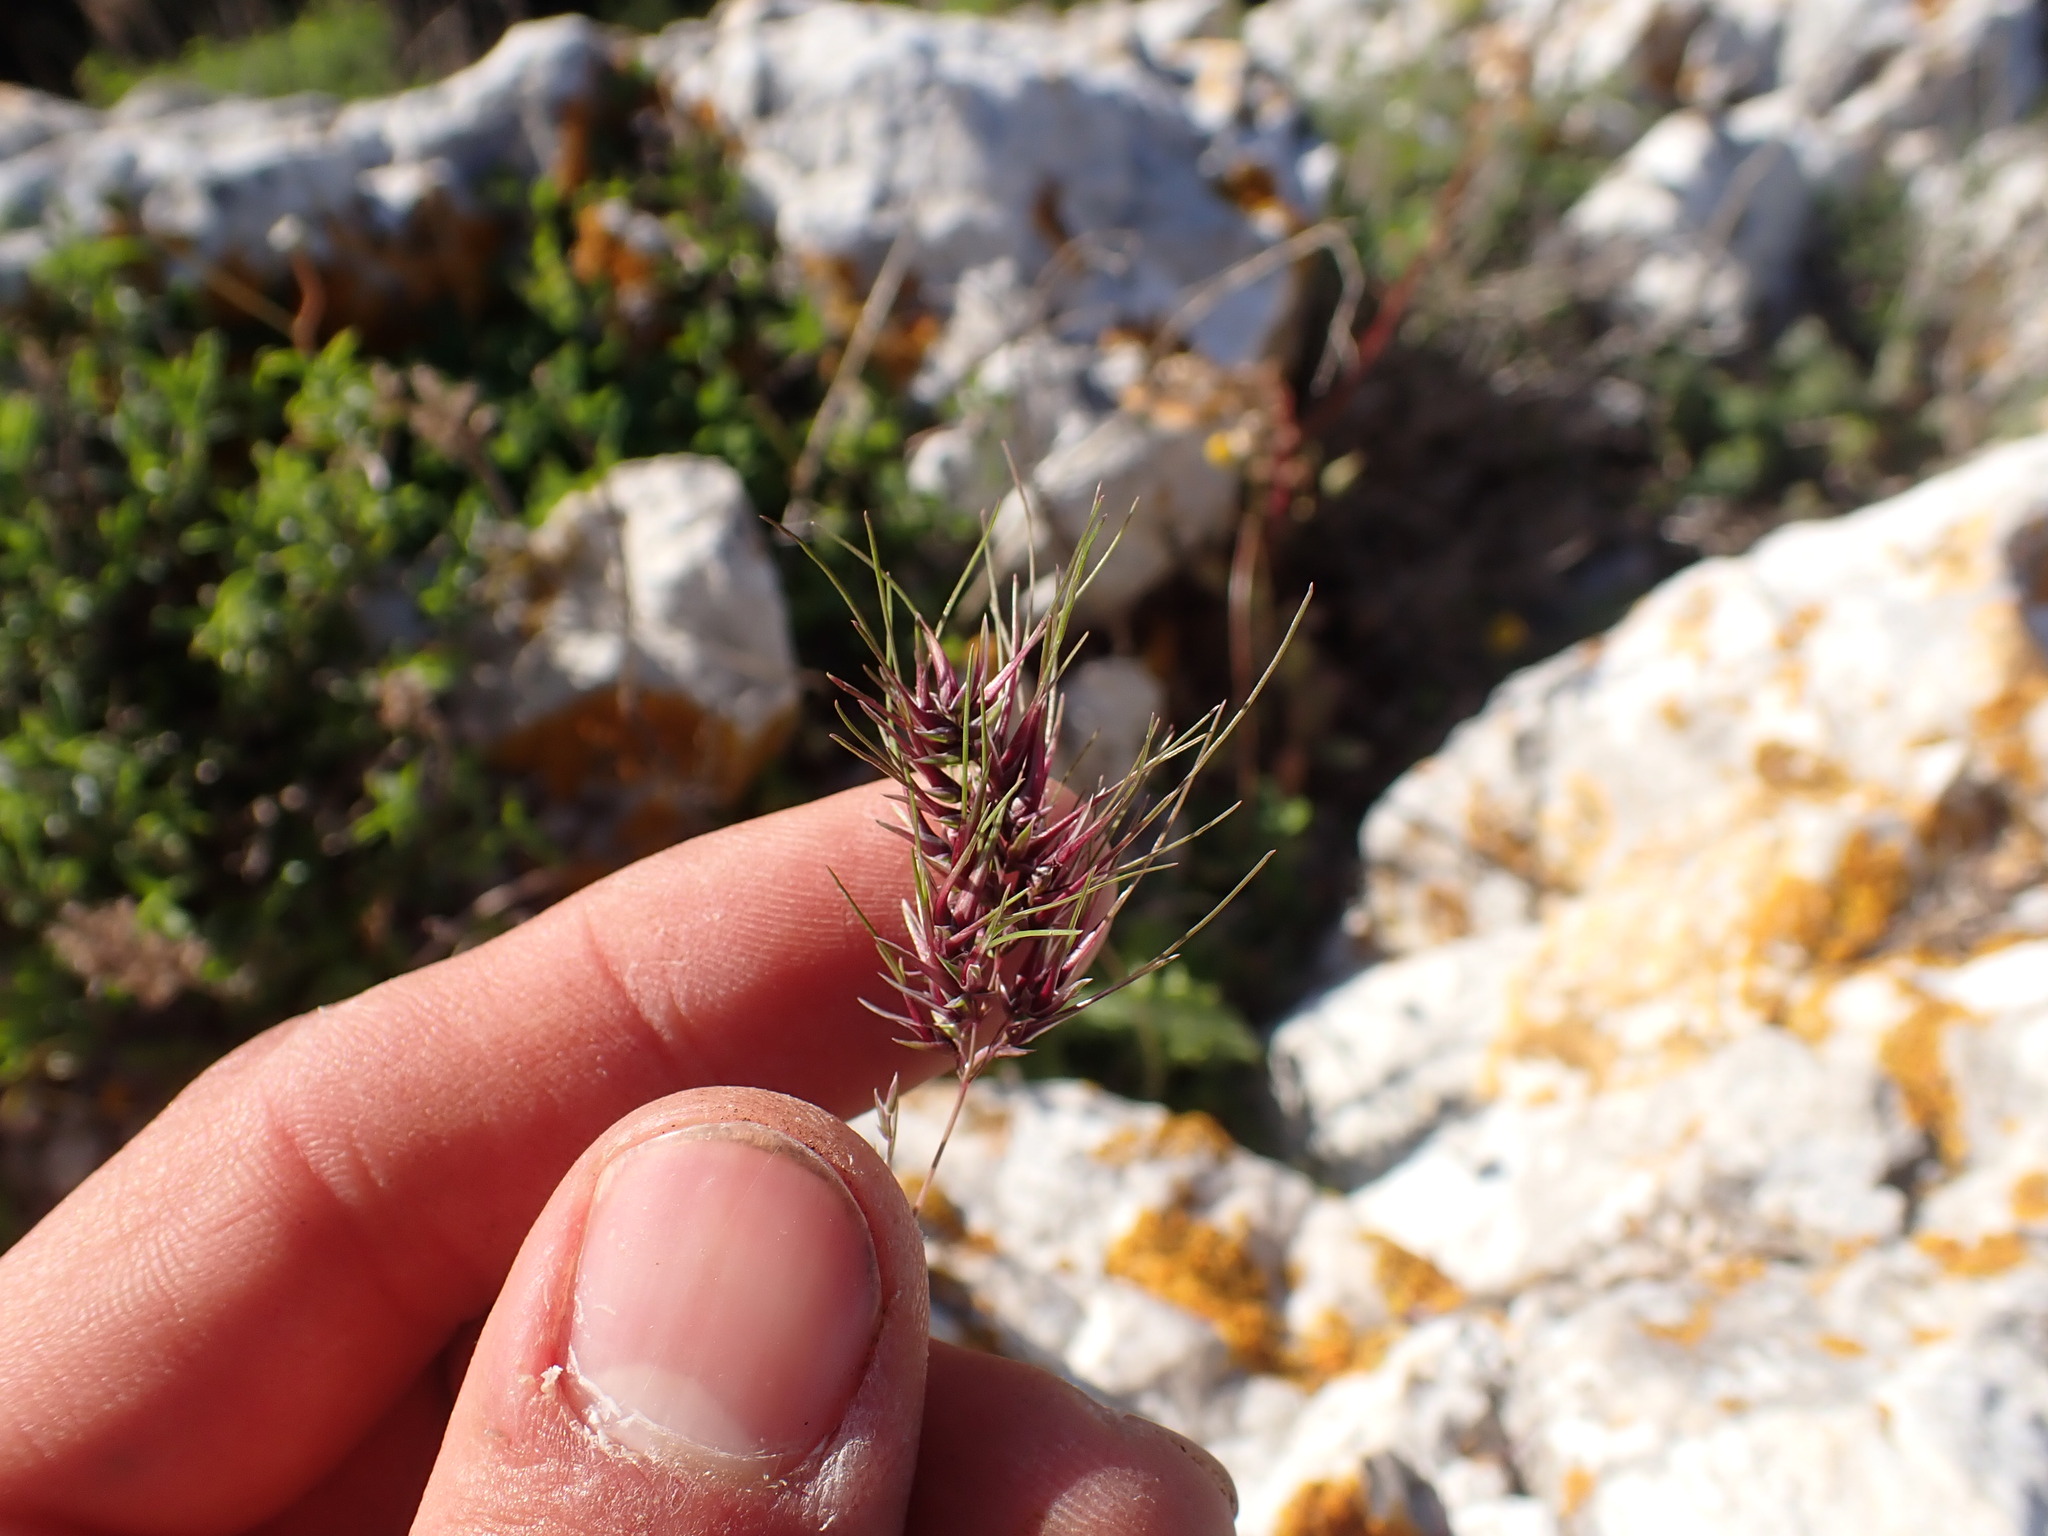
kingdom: Plantae
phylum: Tracheophyta
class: Liliopsida
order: Poales
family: Poaceae
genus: Poa
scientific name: Poa bulbosa
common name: Bulbous bluegrass
